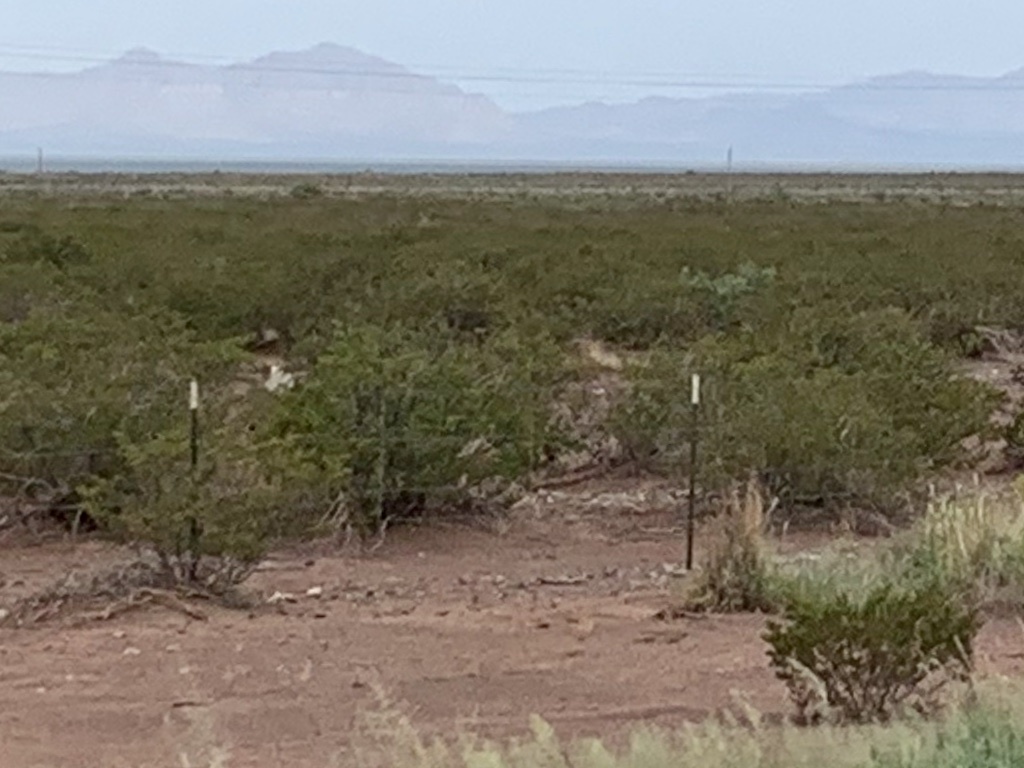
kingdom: Plantae
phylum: Tracheophyta
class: Magnoliopsida
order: Zygophyllales
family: Zygophyllaceae
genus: Larrea
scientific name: Larrea tridentata
